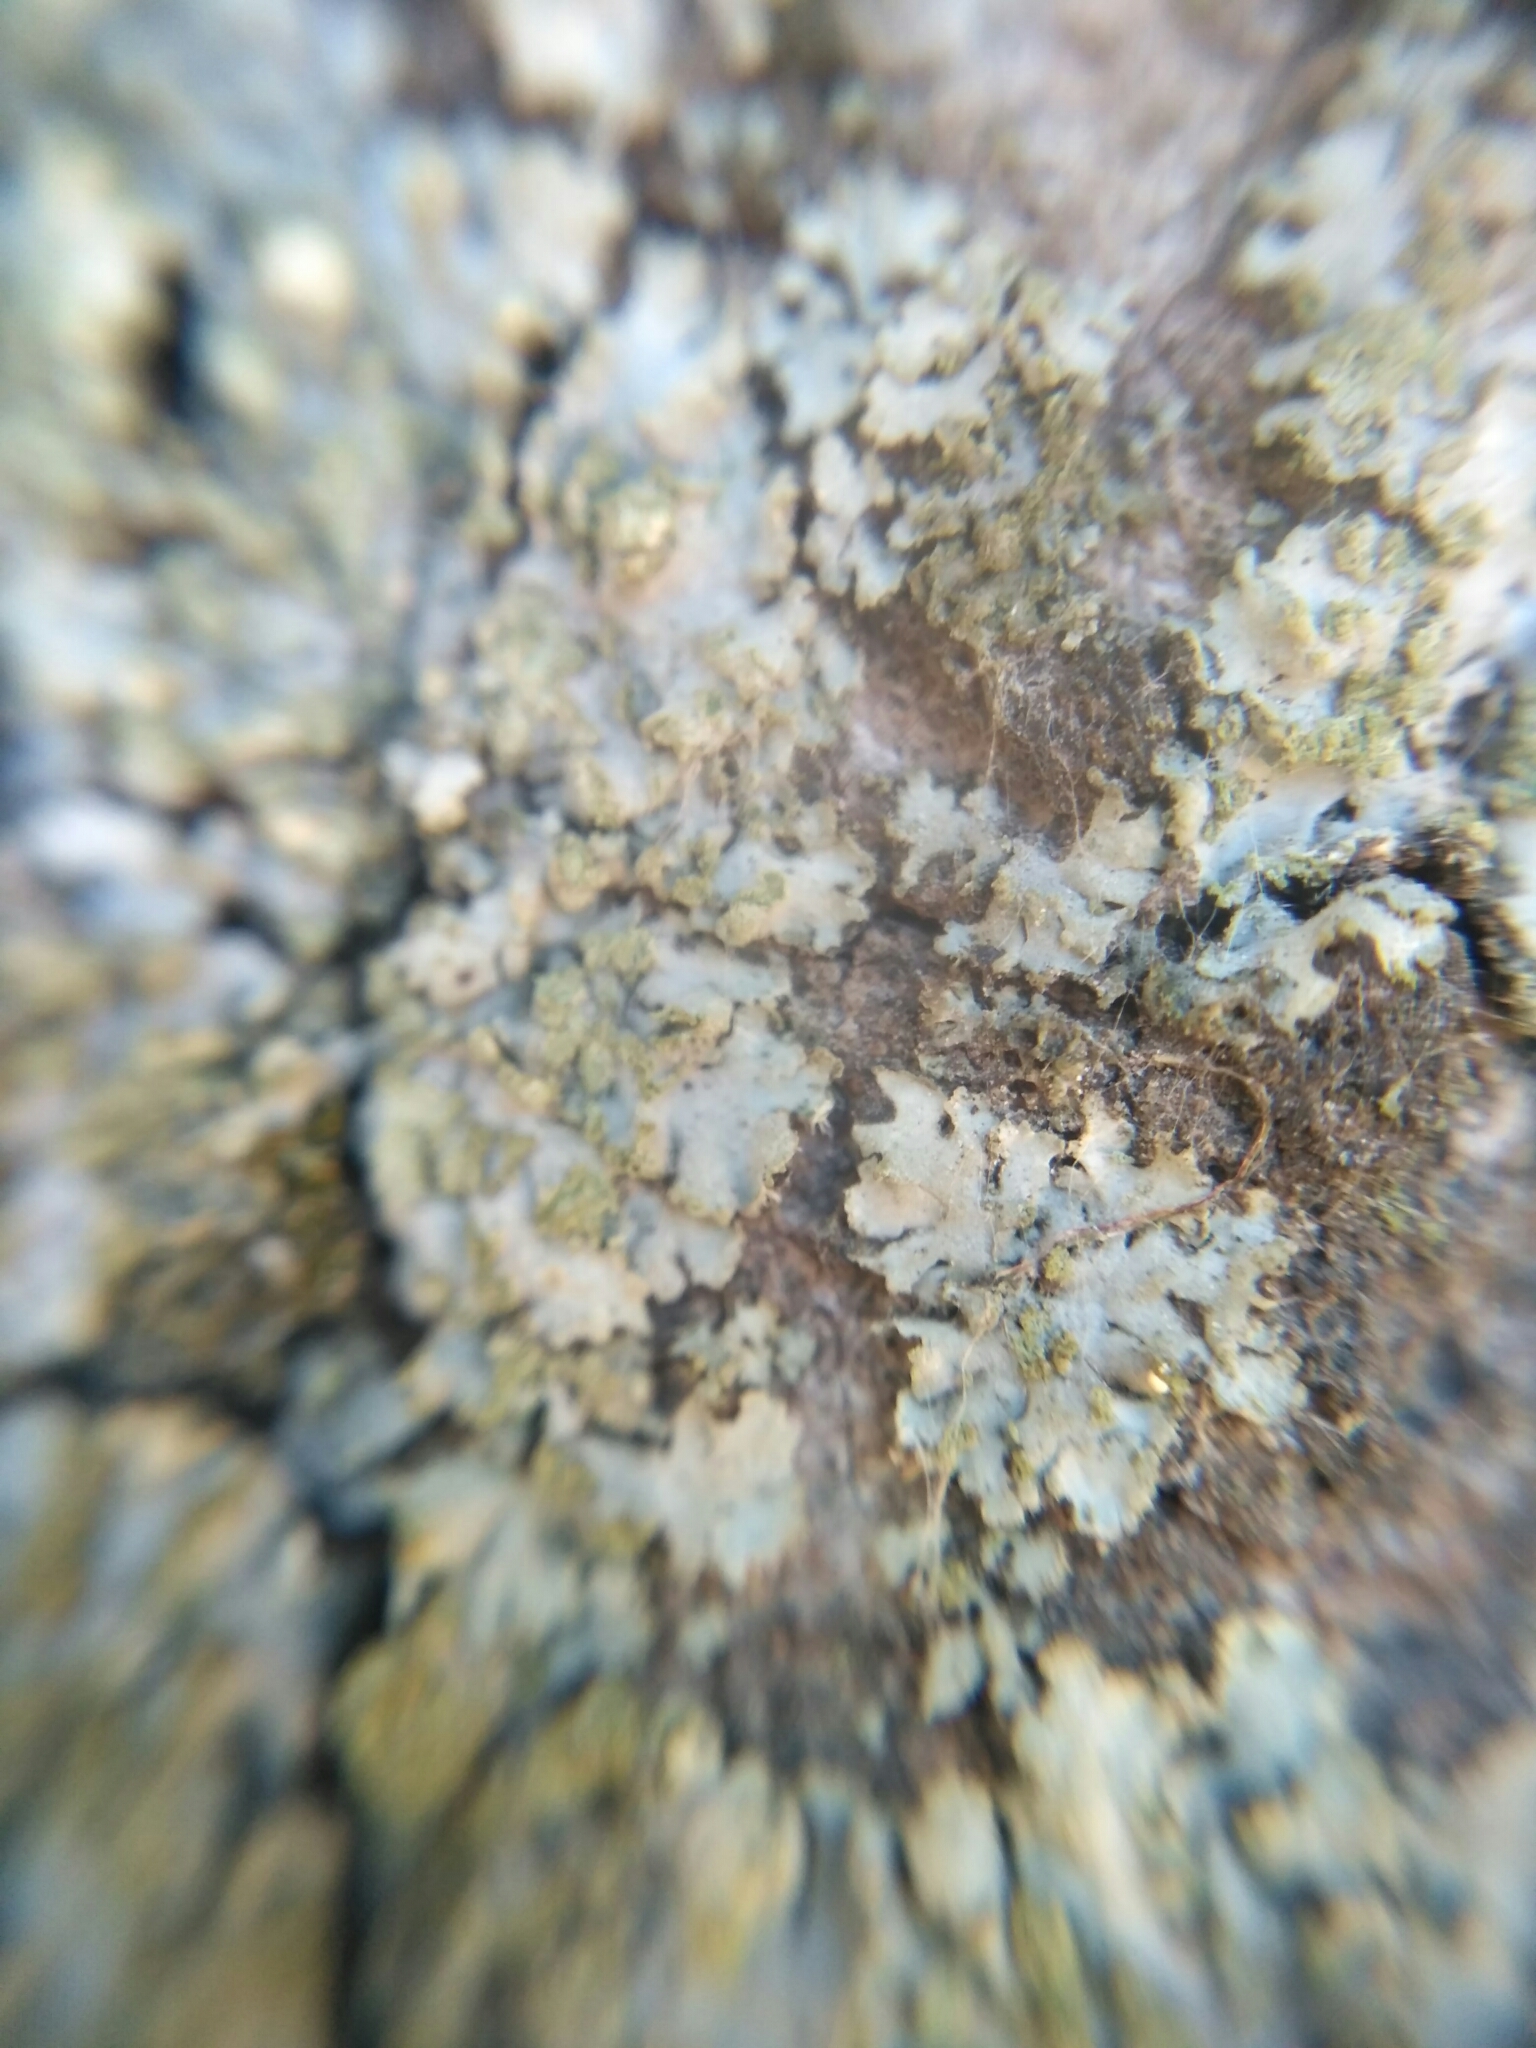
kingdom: Fungi
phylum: Ascomycota
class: Lecanoromycetes
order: Caliciales
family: Physciaceae
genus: Phaeophyscia
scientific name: Phaeophyscia orbicularis
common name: Mealy shadow lichen
